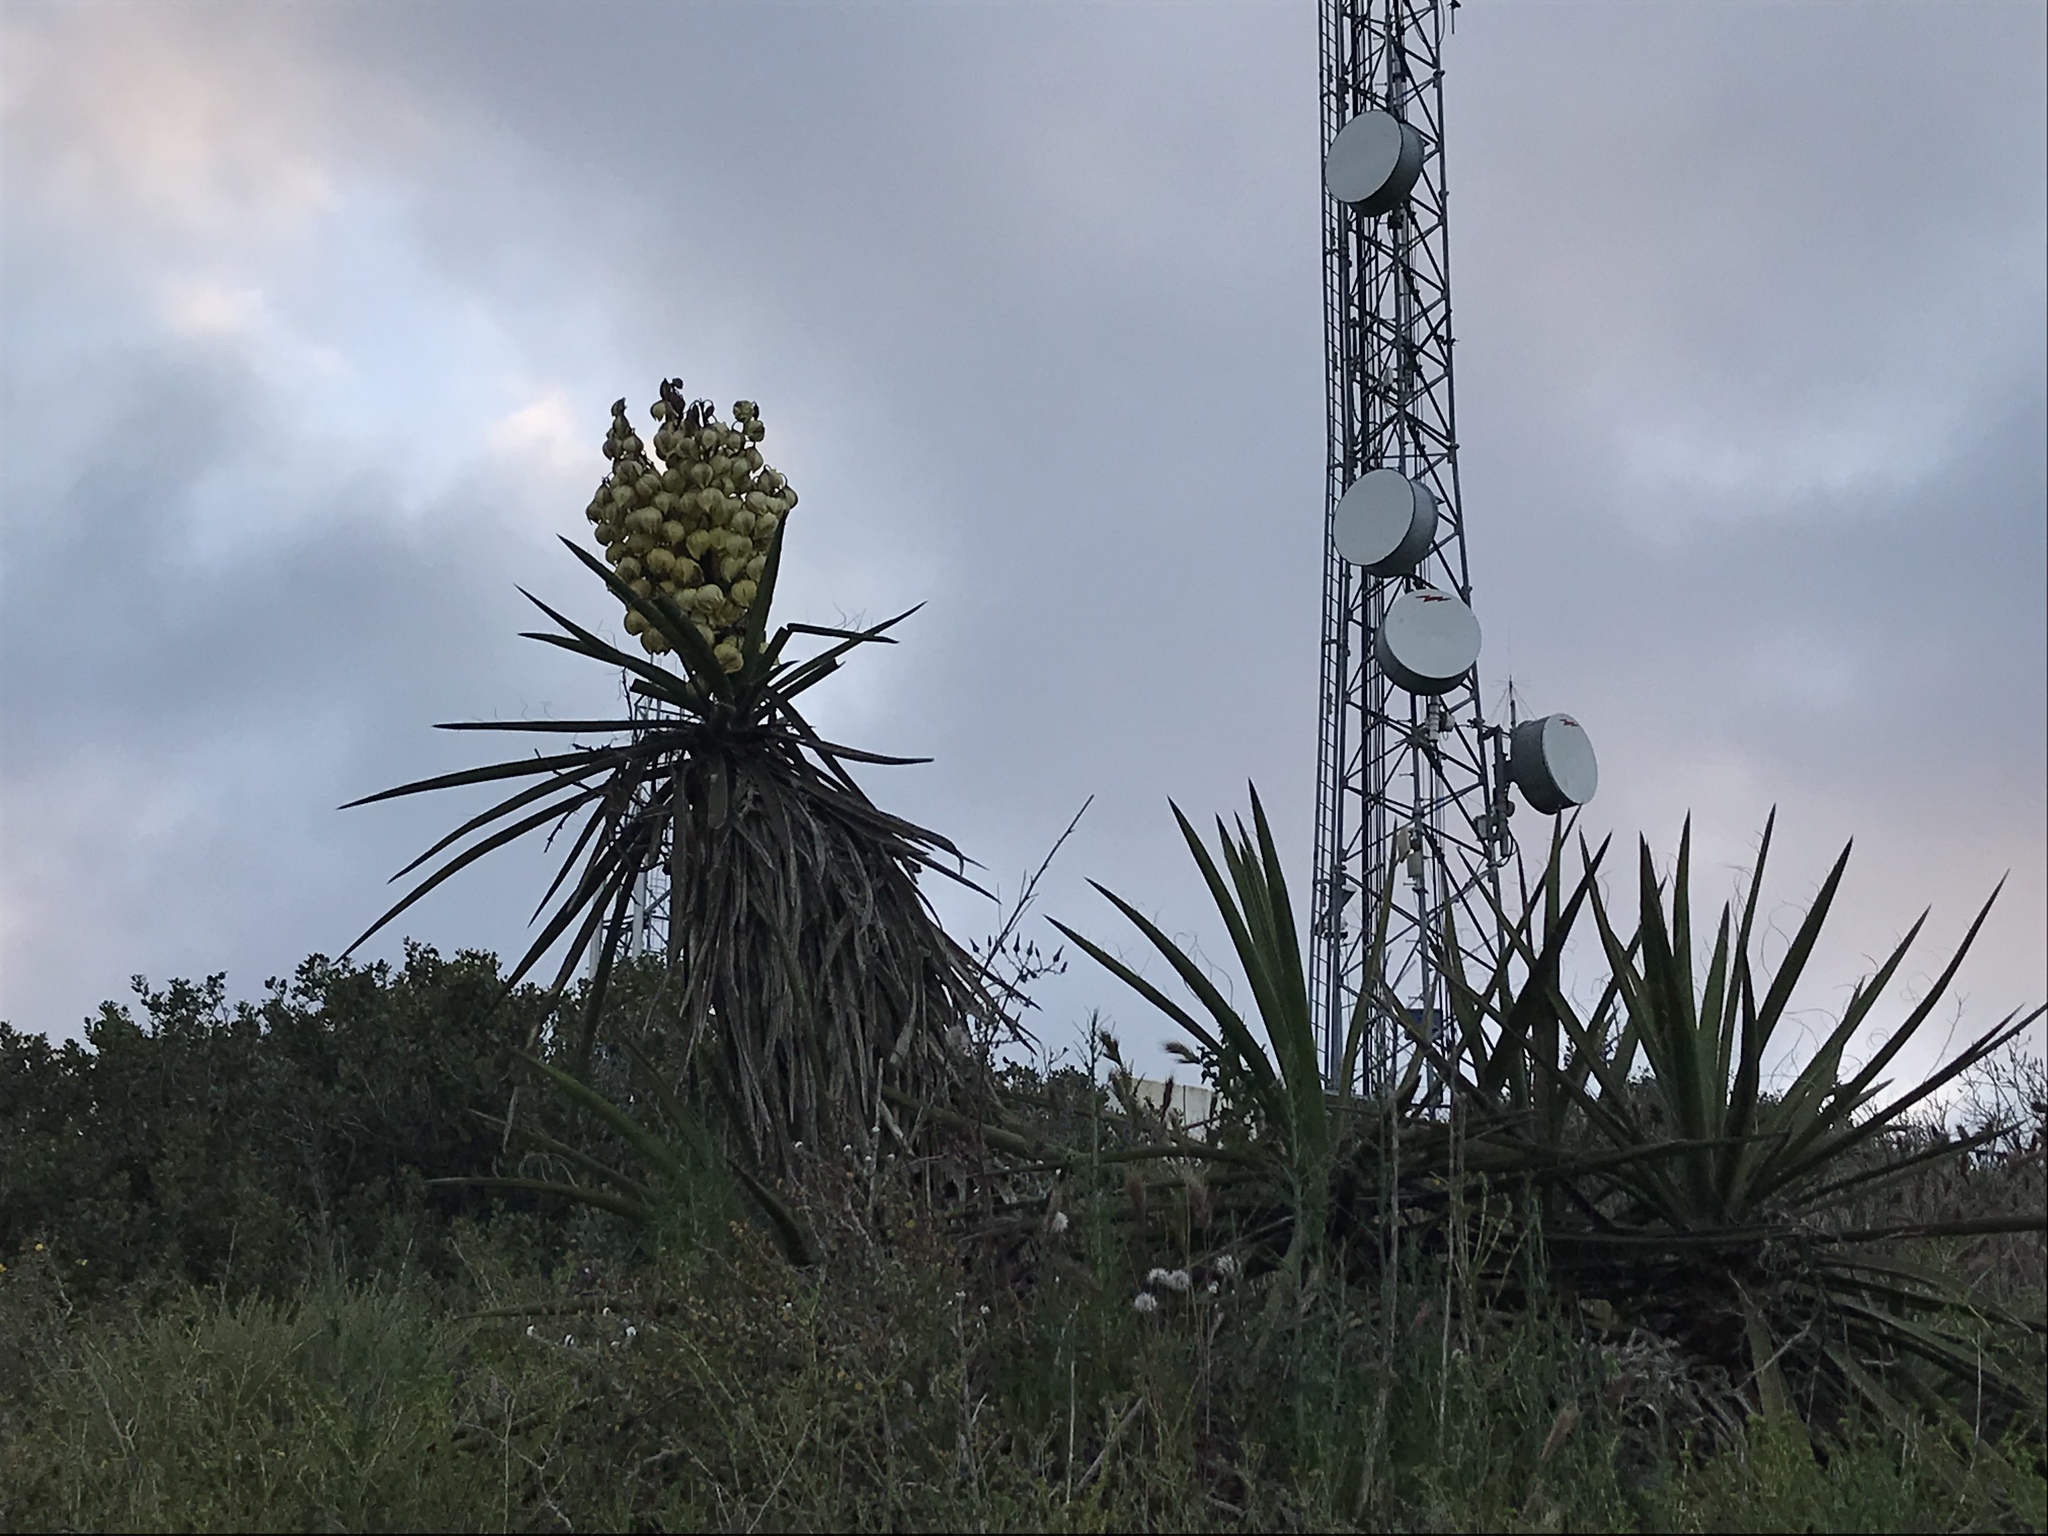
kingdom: Plantae
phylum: Tracheophyta
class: Liliopsida
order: Asparagales
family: Asparagaceae
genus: Yucca
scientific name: Yucca schidigera
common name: Mojave yucca
